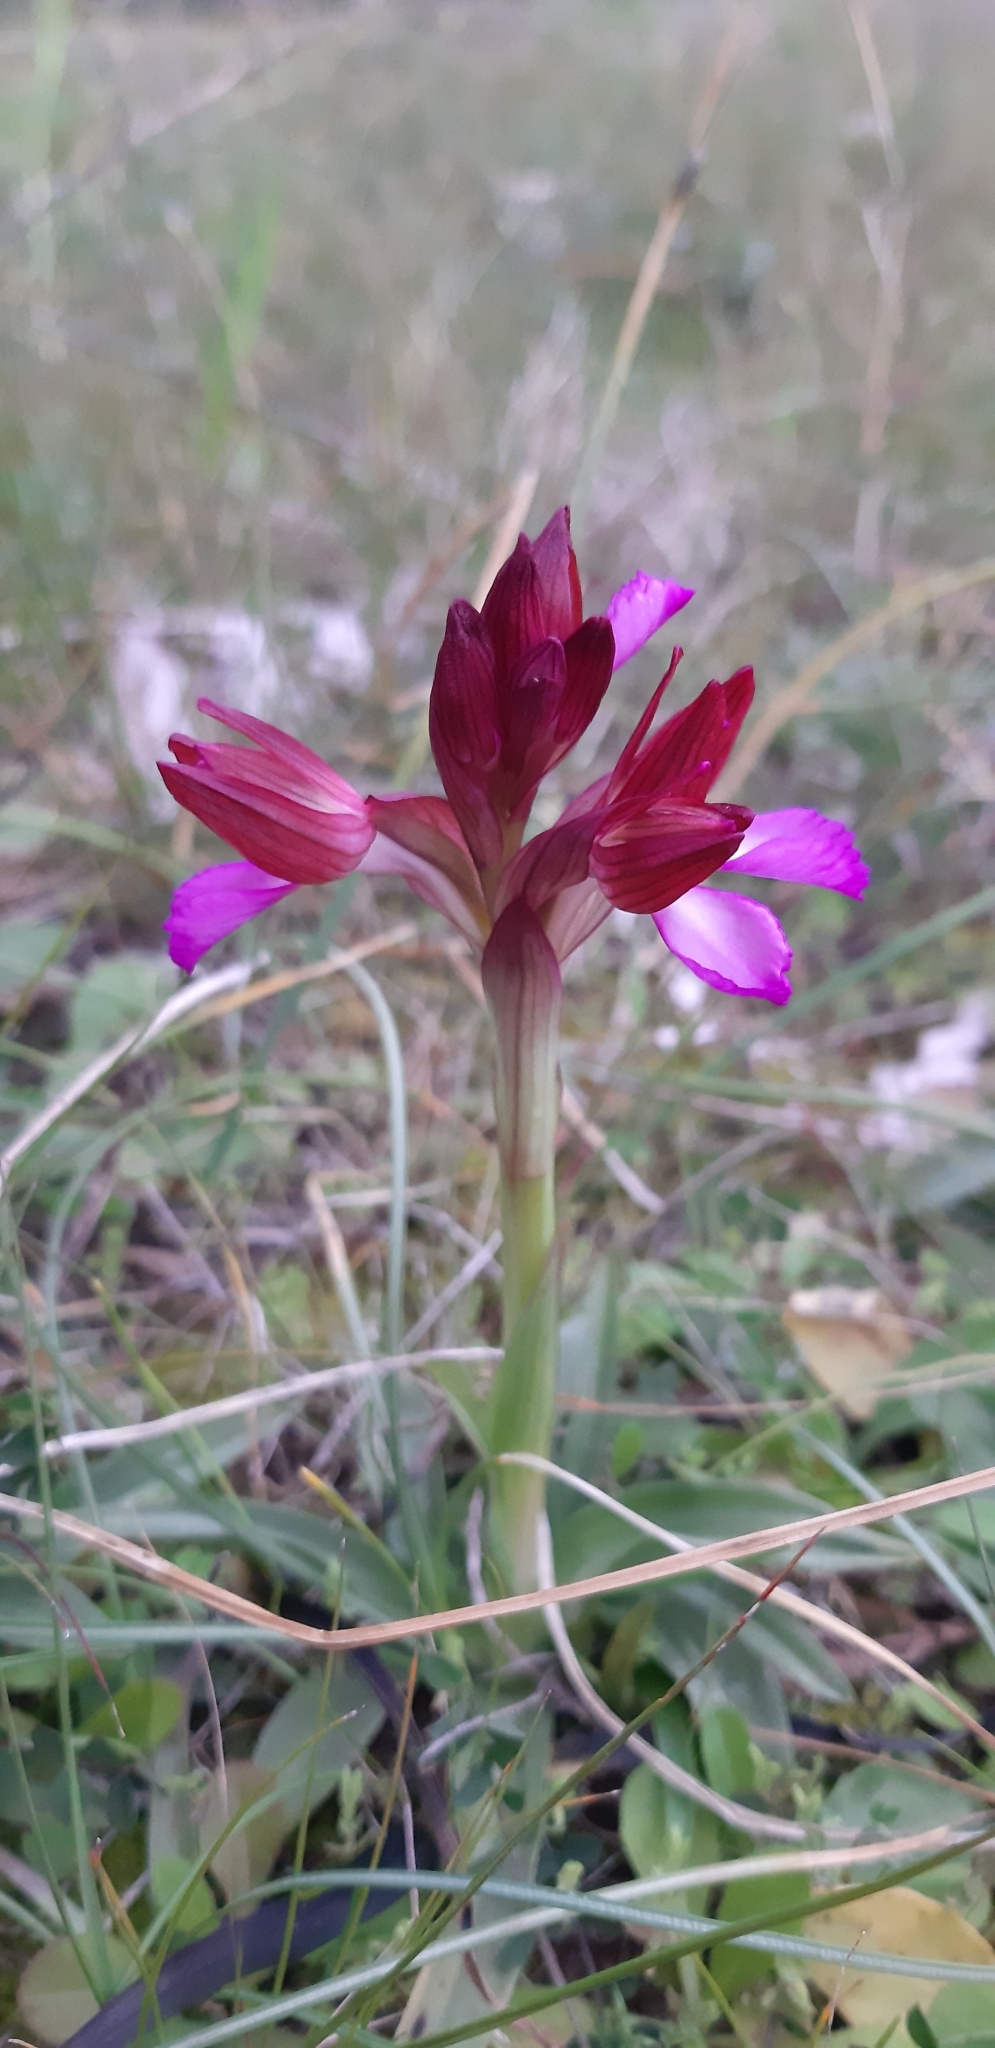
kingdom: Plantae
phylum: Tracheophyta
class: Liliopsida
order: Asparagales
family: Orchidaceae
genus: Anacamptis
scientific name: Anacamptis papilionacea
